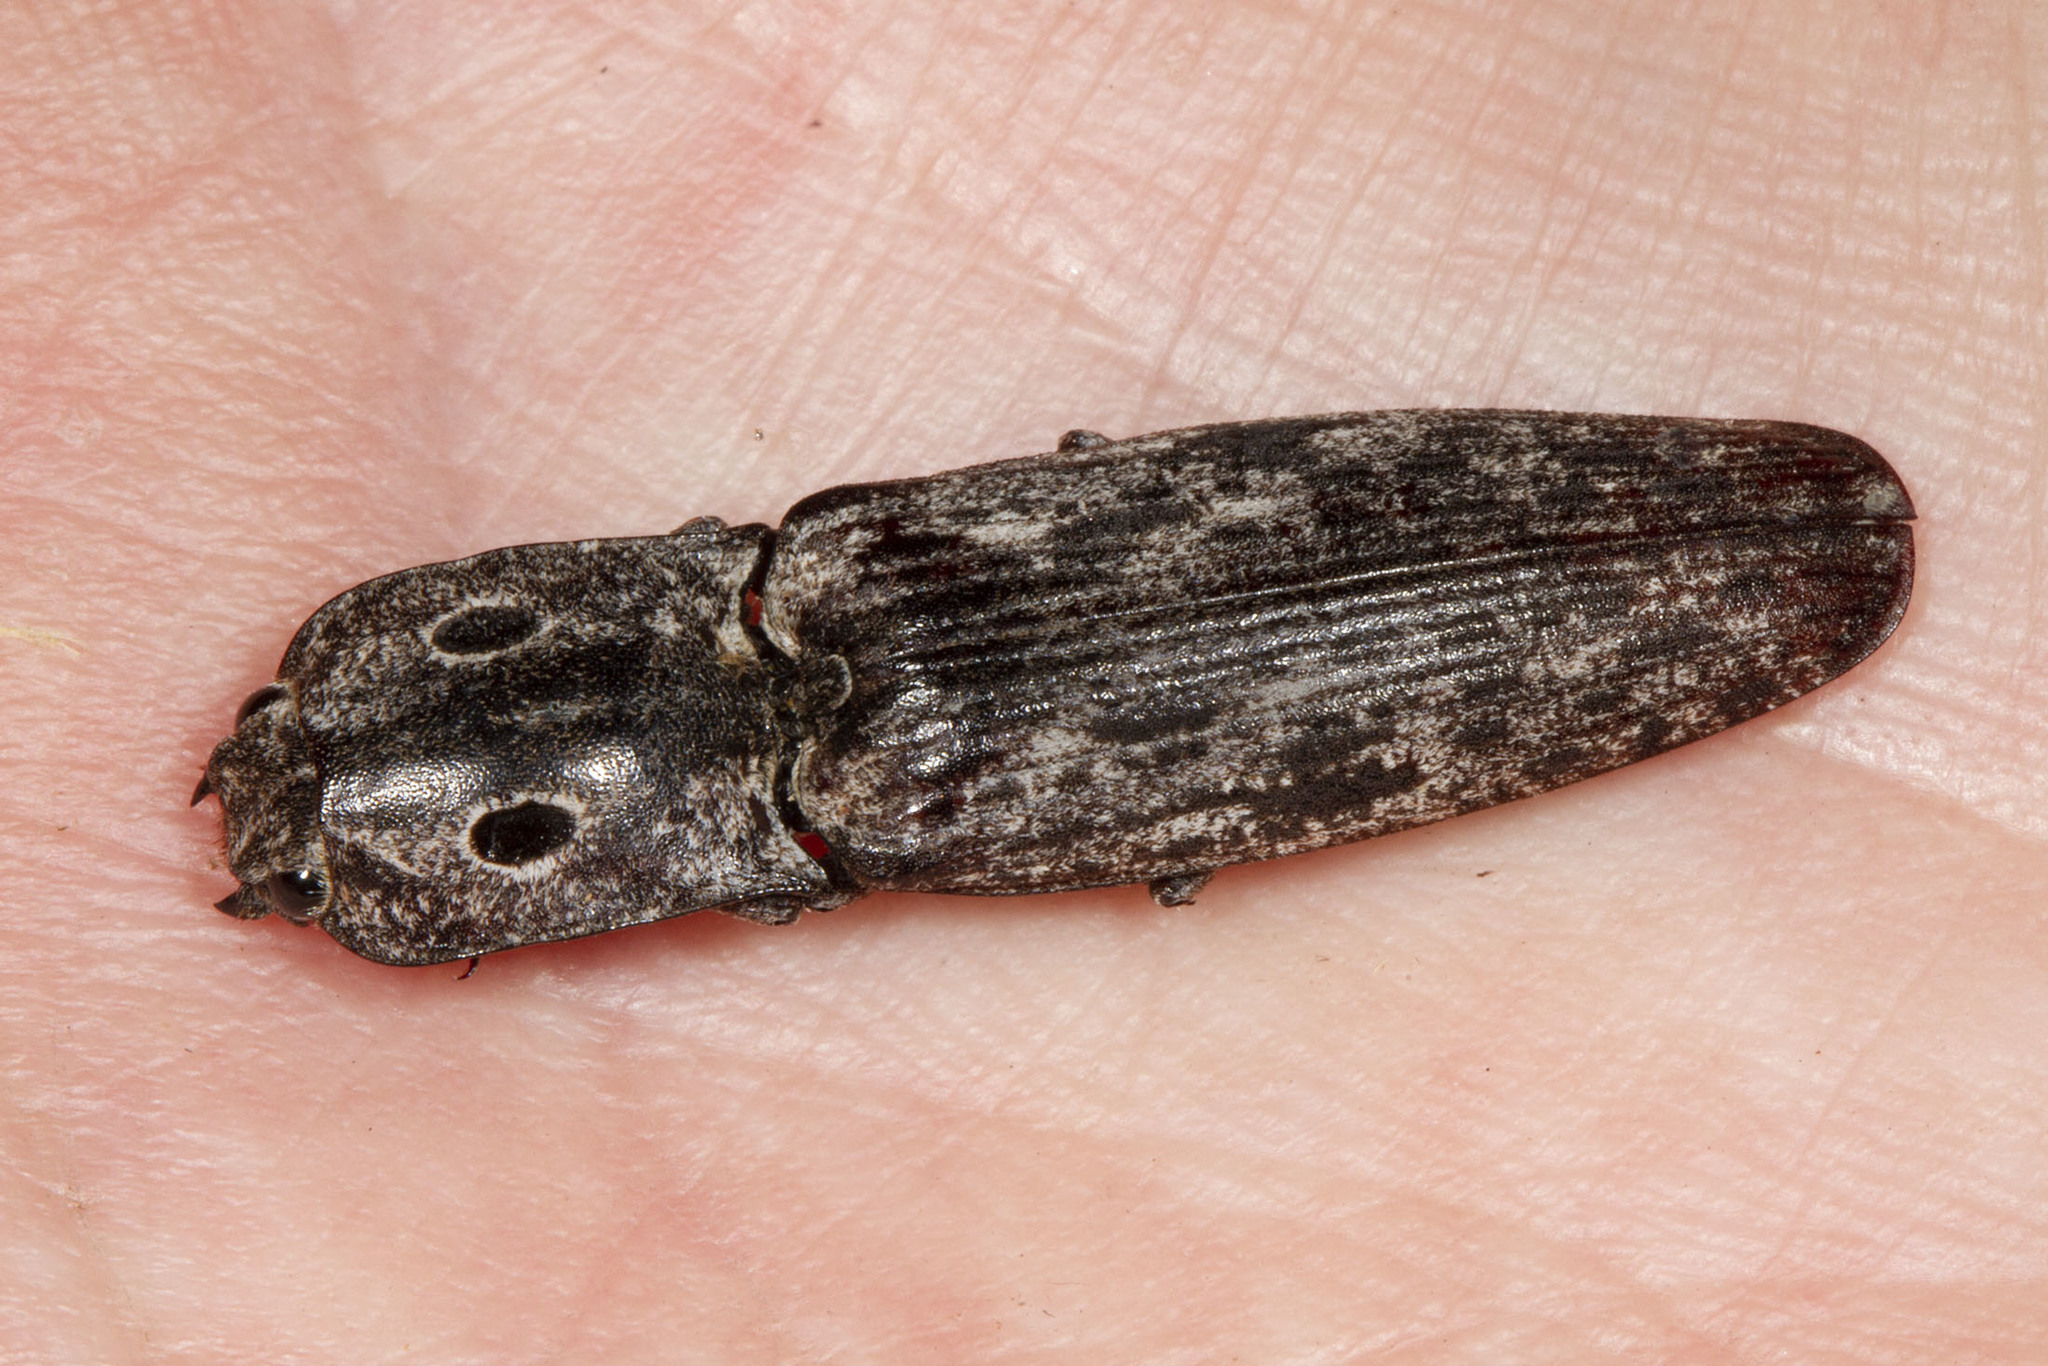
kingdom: Animalia
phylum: Arthropoda
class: Insecta
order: Coleoptera
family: Elateridae
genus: Alaus
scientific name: Alaus myops
